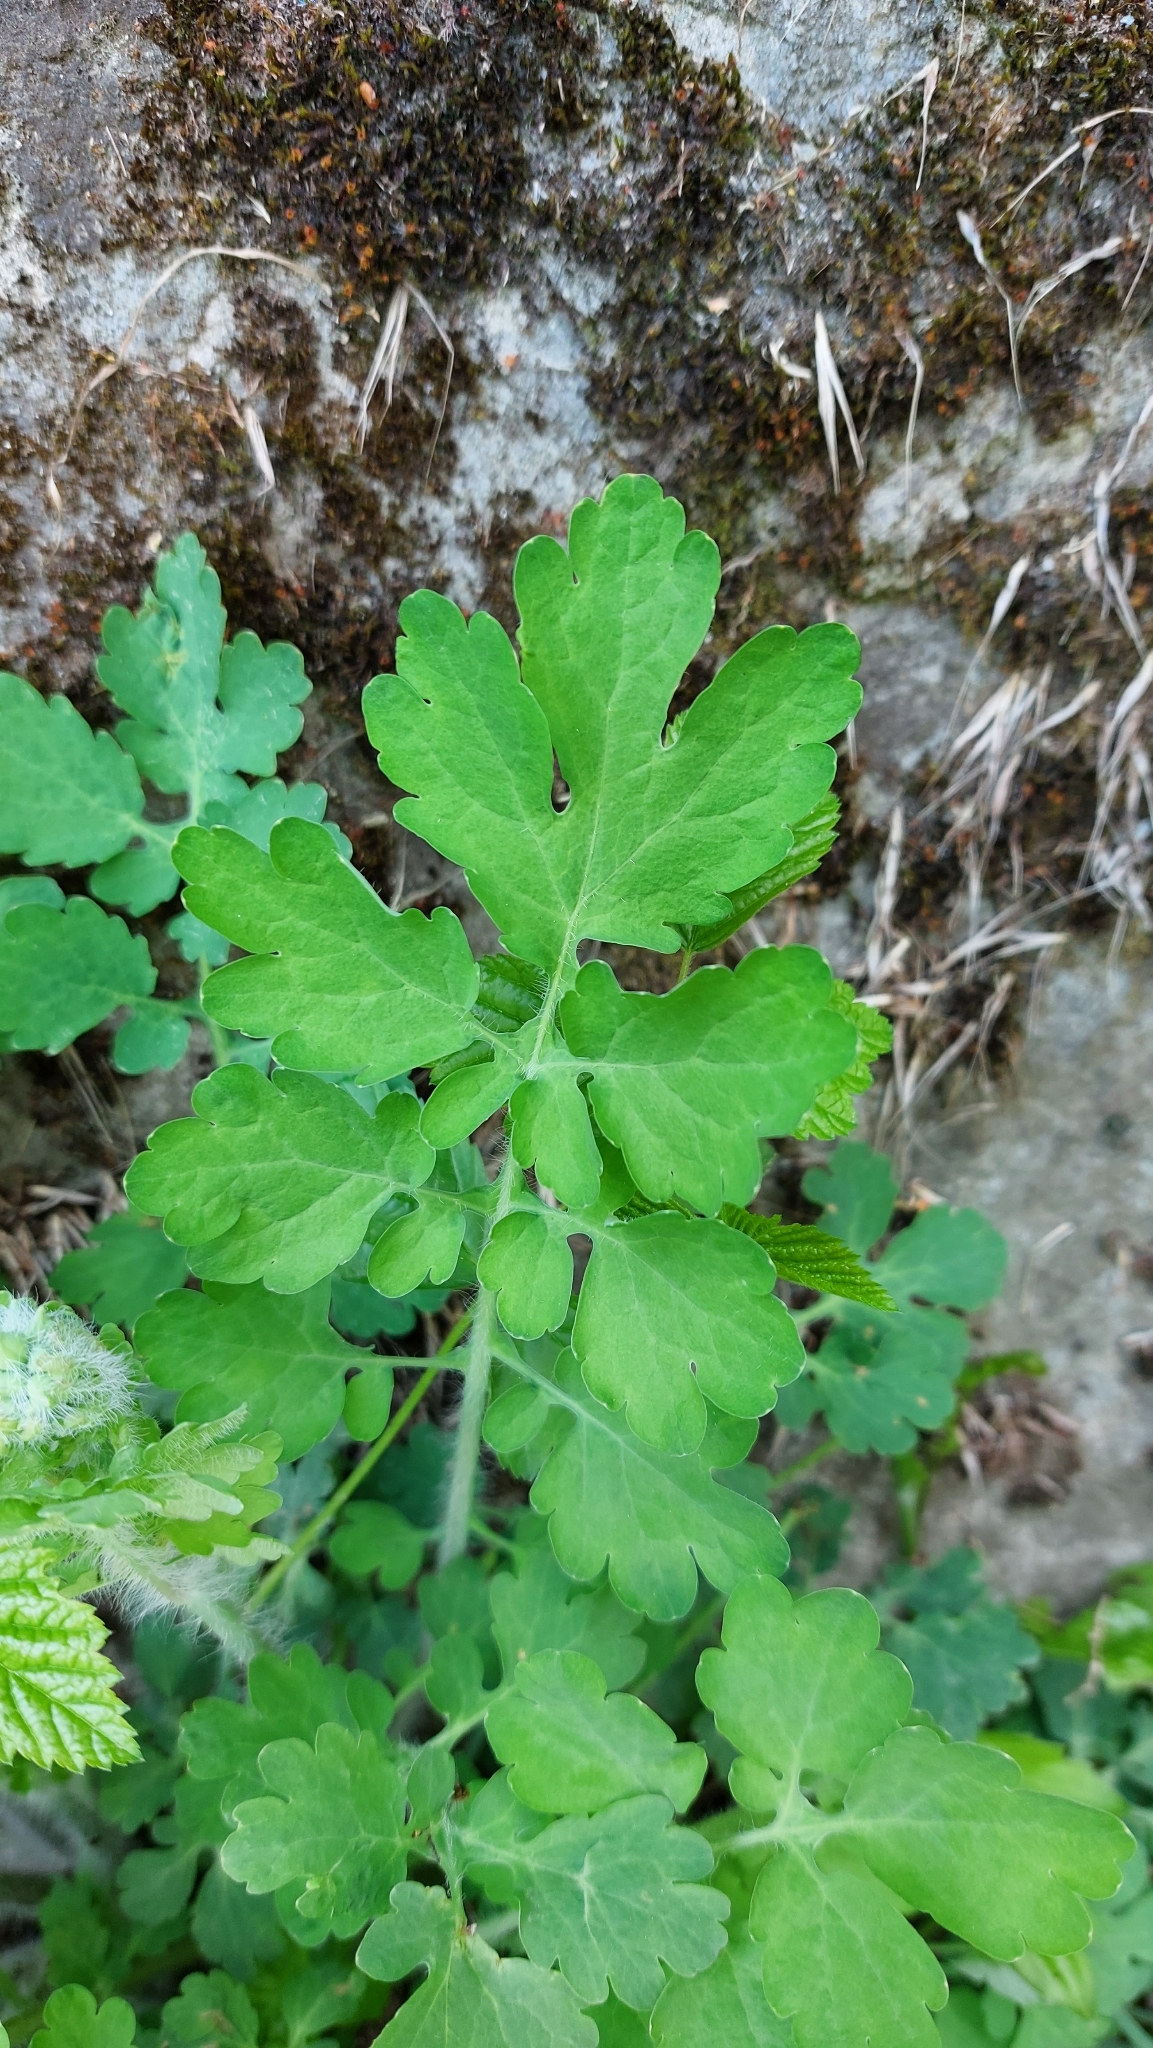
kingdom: Plantae
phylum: Tracheophyta
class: Magnoliopsida
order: Ranunculales
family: Papaveraceae
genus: Chelidonium
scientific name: Chelidonium majus
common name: Greater celandine
